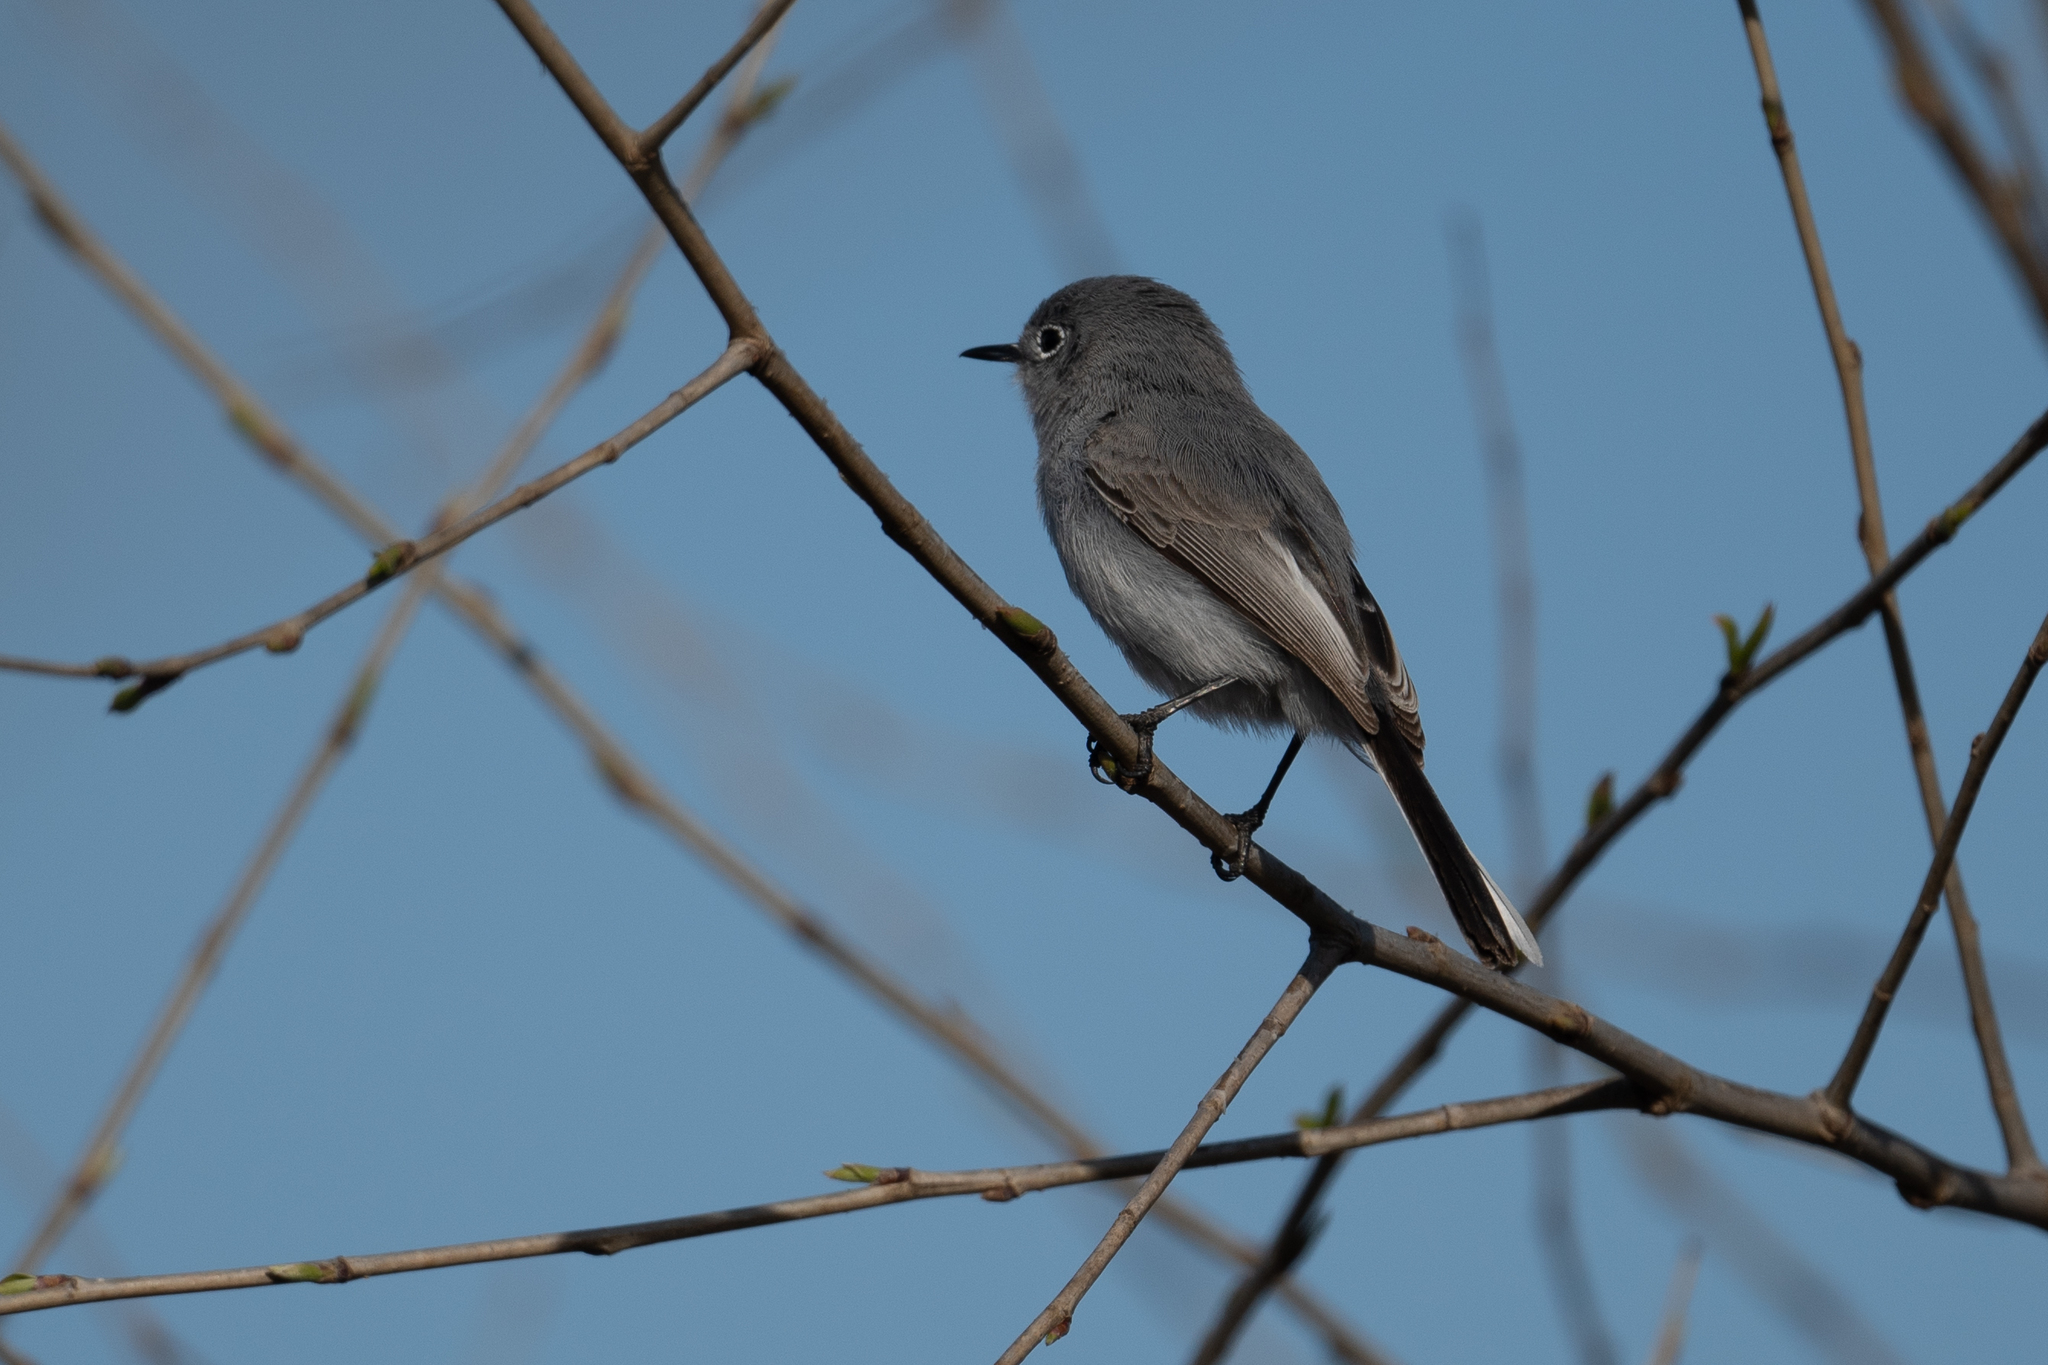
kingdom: Animalia
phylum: Chordata
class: Aves
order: Passeriformes
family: Polioptilidae
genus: Polioptila
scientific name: Polioptila caerulea
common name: Blue-gray gnatcatcher
